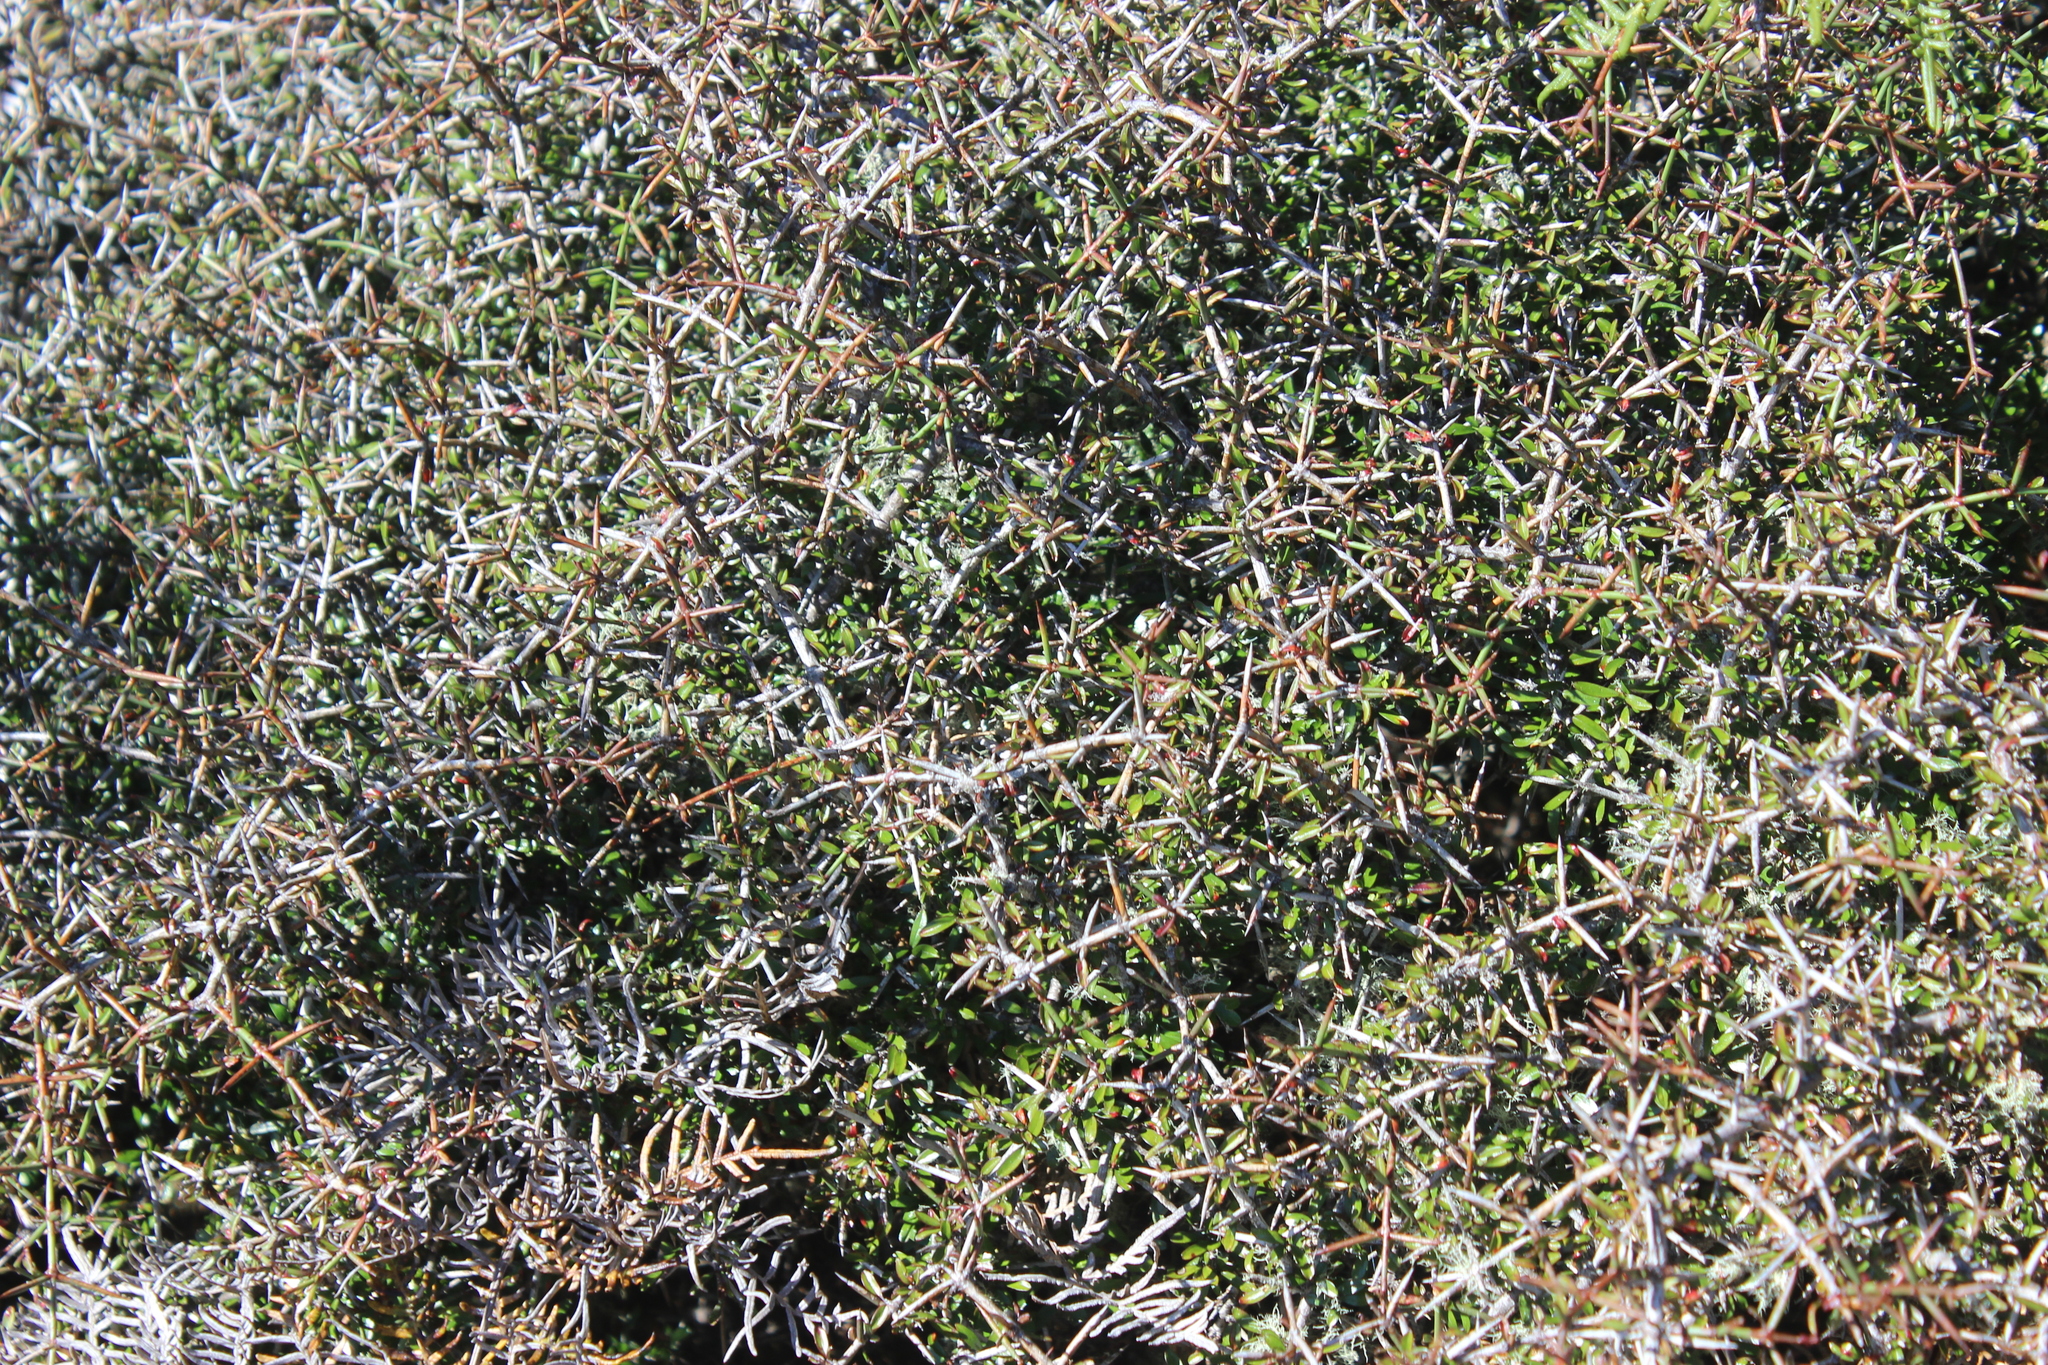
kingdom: Plantae
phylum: Tracheophyta
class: Magnoliopsida
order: Rosales
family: Rhamnaceae
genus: Discaria
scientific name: Discaria toumatou
